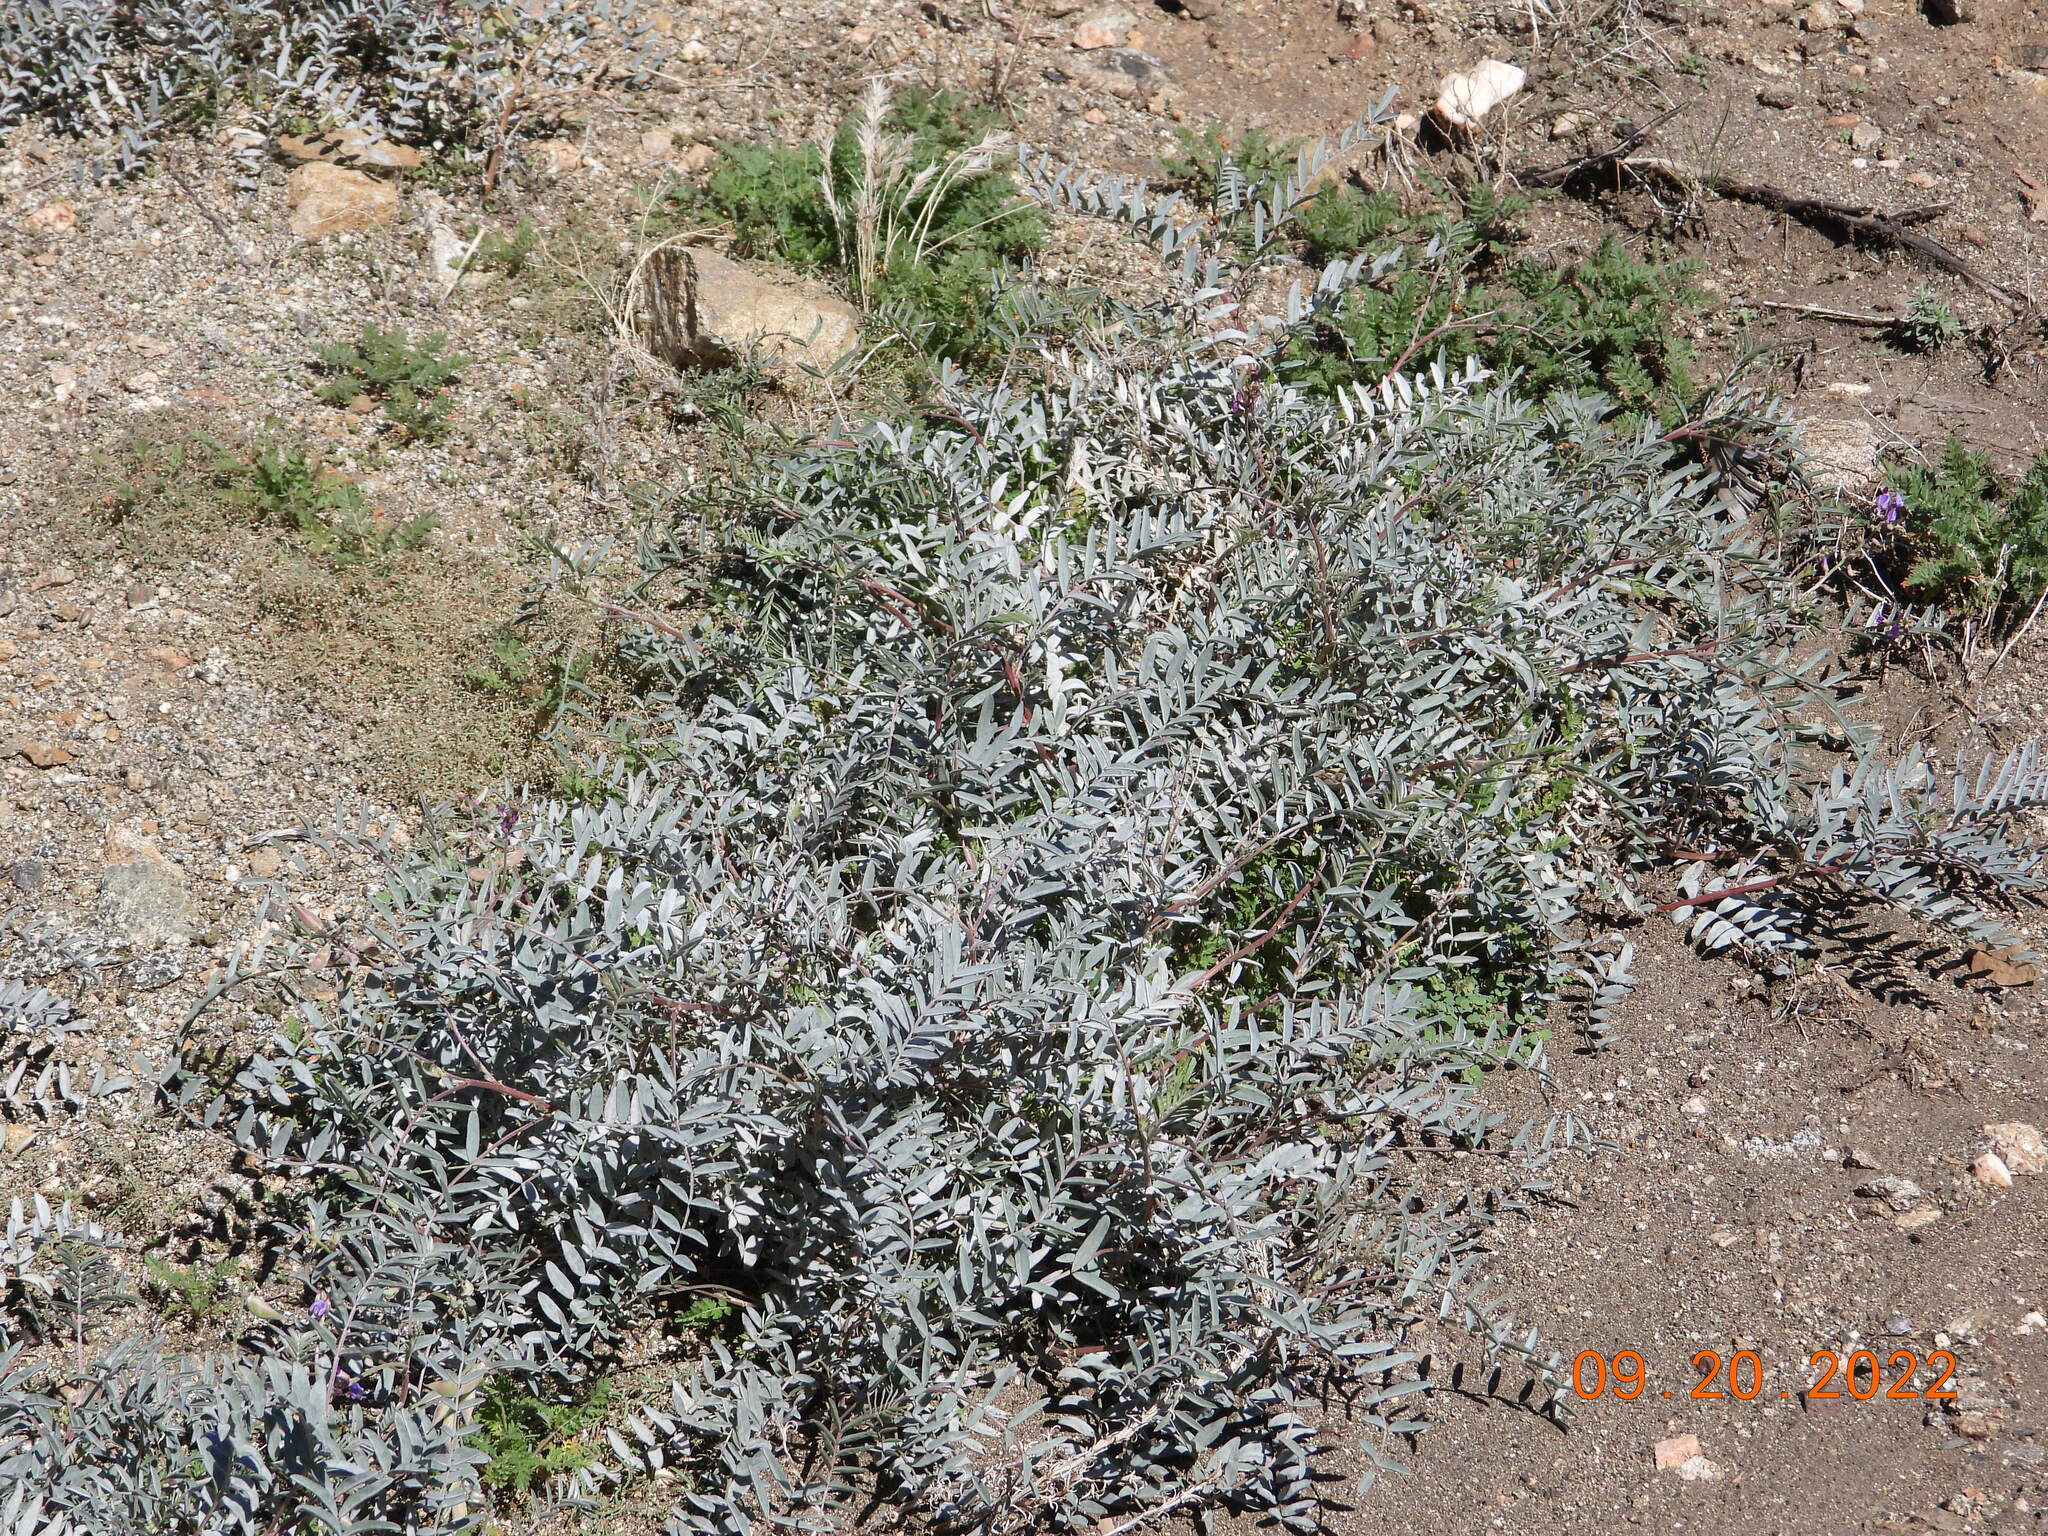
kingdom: Plantae
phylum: Tracheophyta
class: Magnoliopsida
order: Fabales
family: Fabaceae
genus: Astragalus
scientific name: Astragalus palmeri
